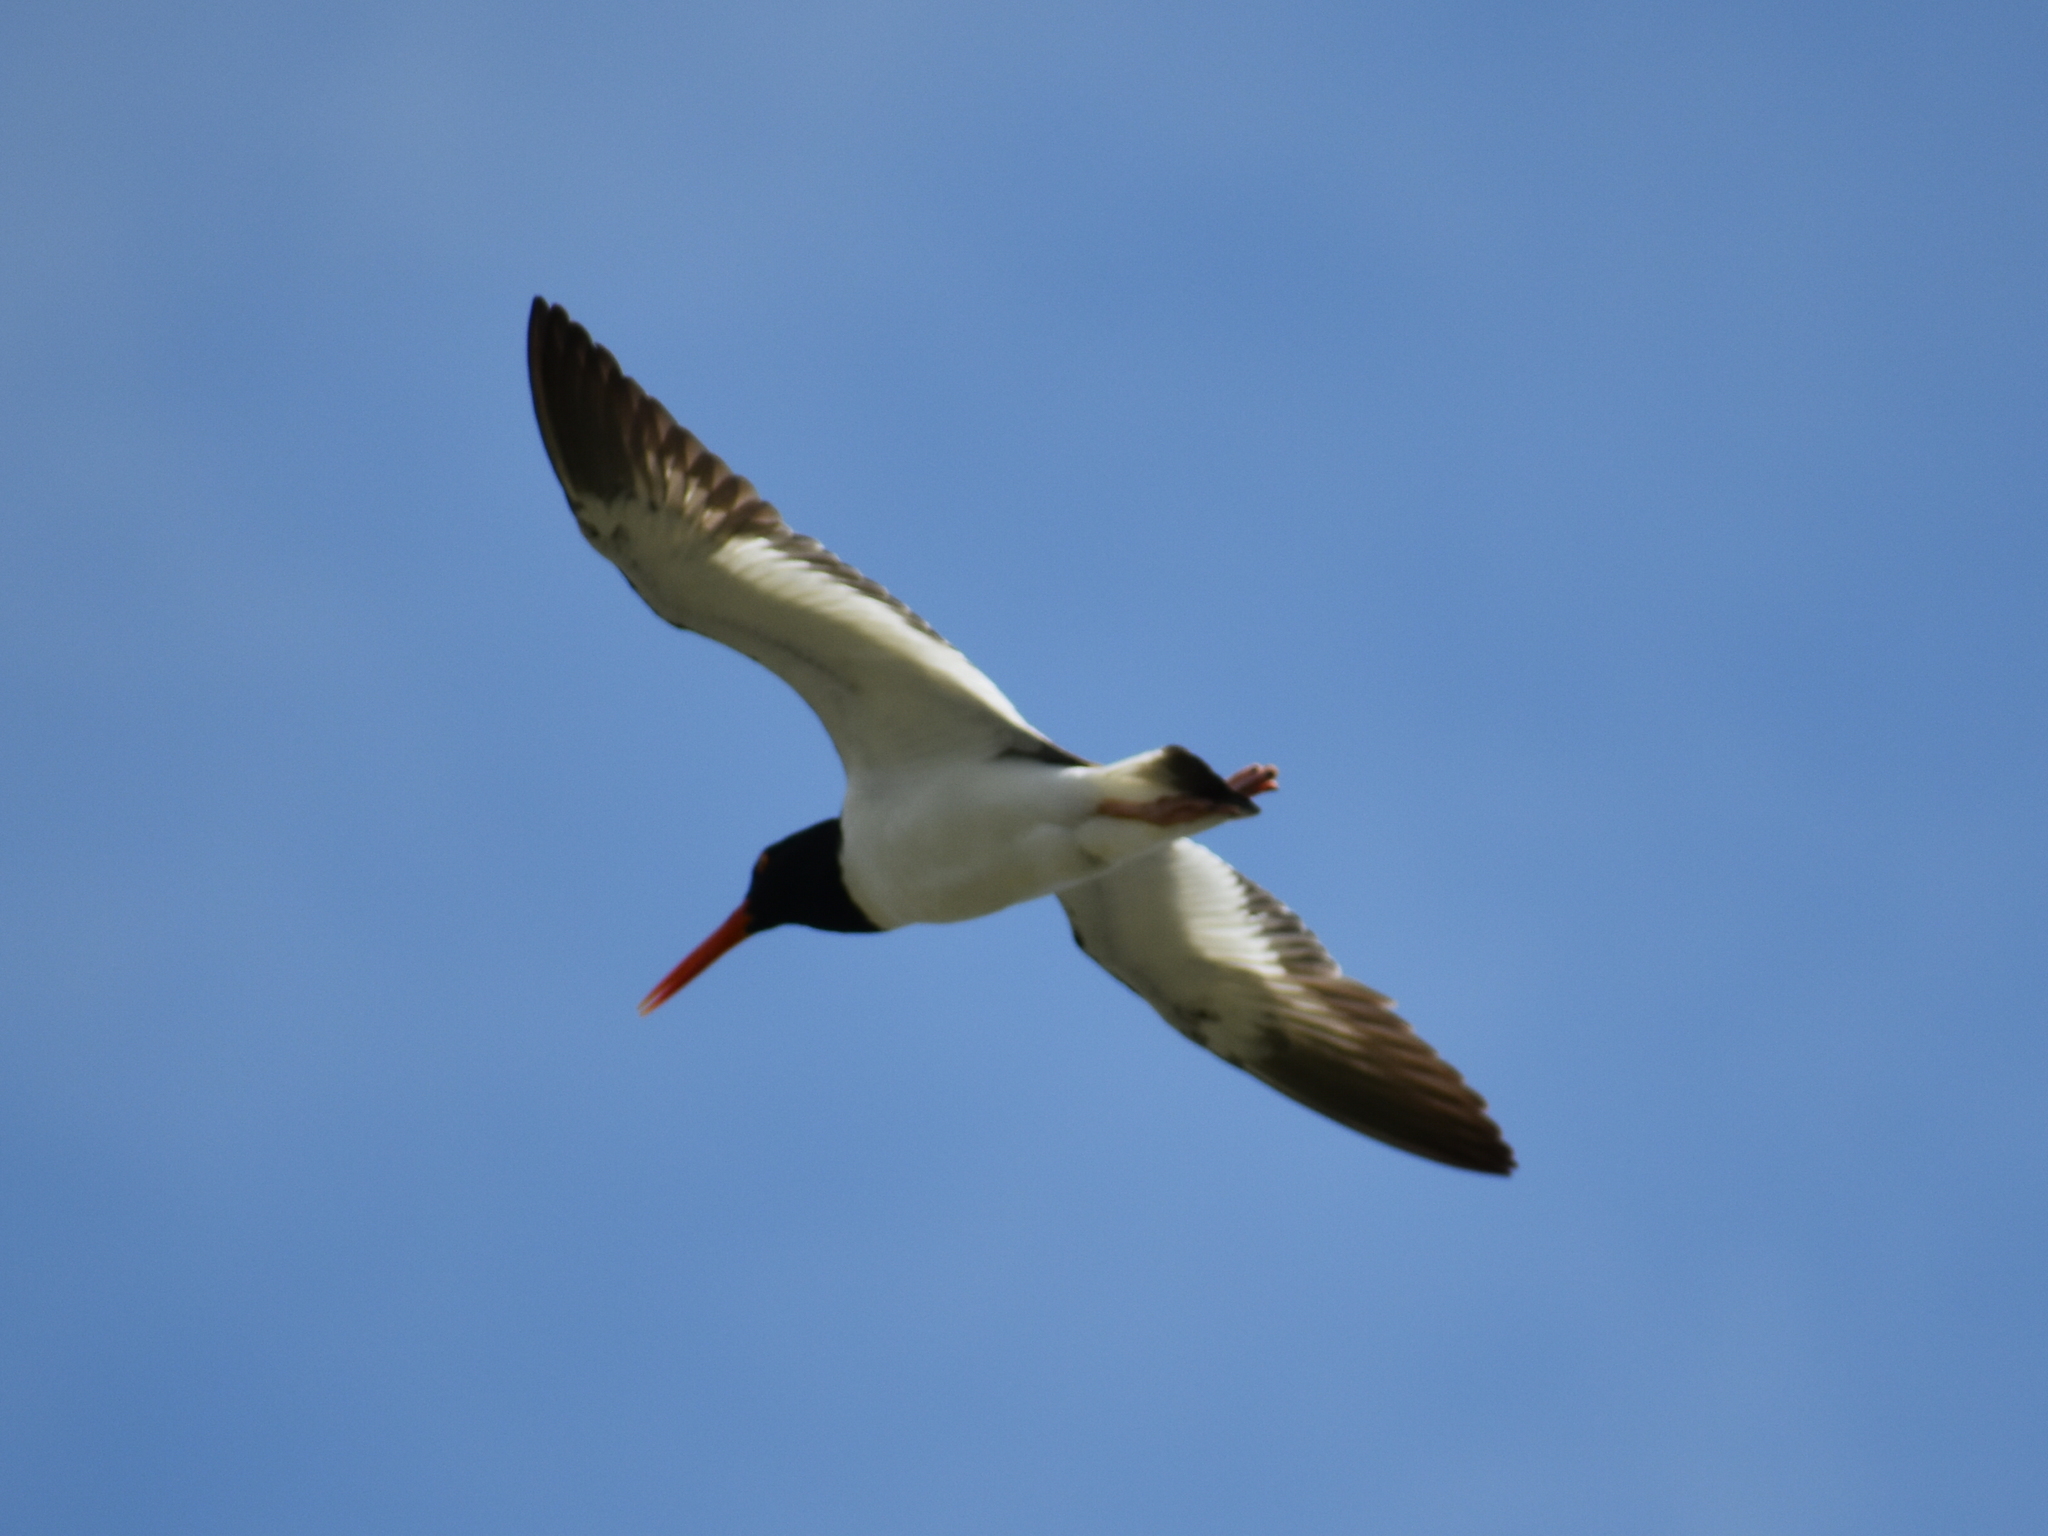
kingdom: Animalia
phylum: Chordata
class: Aves
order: Charadriiformes
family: Haematopodidae
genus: Haematopus
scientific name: Haematopus palliatus
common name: American oystercatcher
